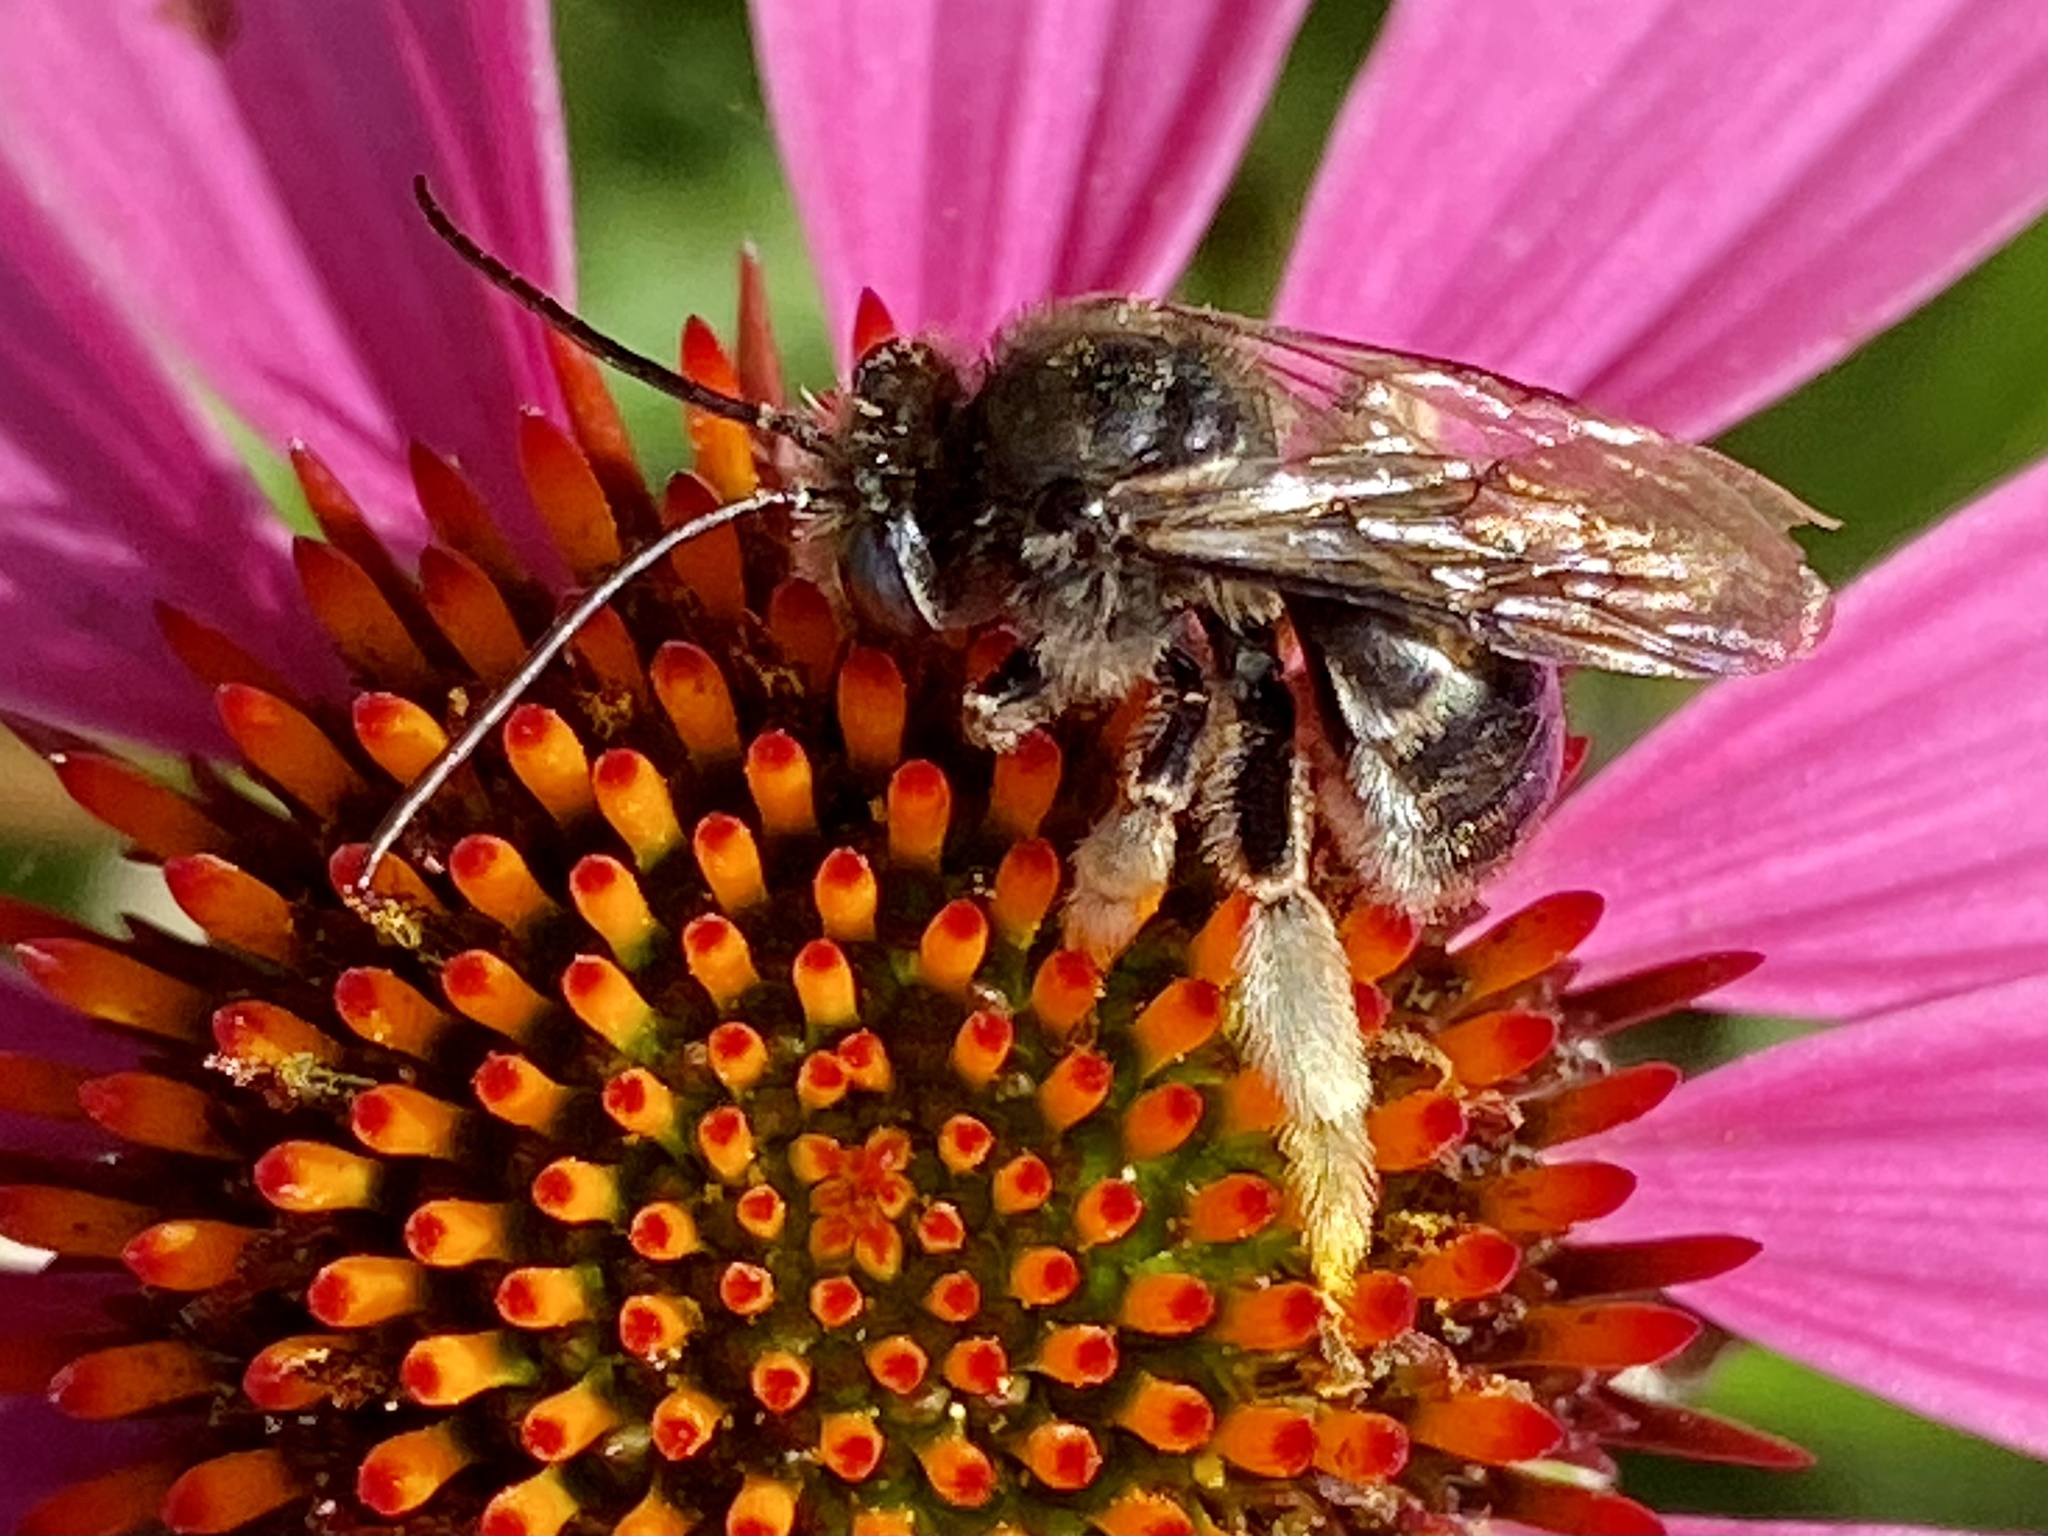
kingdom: Animalia
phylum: Arthropoda
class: Insecta
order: Hymenoptera
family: Apidae
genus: Melissodes
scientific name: Melissodes bimaculatus
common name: Two-spotted long-horned bee
